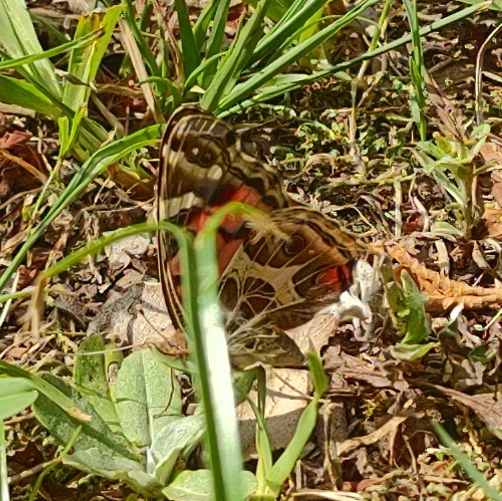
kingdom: Animalia
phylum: Arthropoda
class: Insecta
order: Lepidoptera
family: Nymphalidae
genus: Vanessa
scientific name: Vanessa braziliensis
